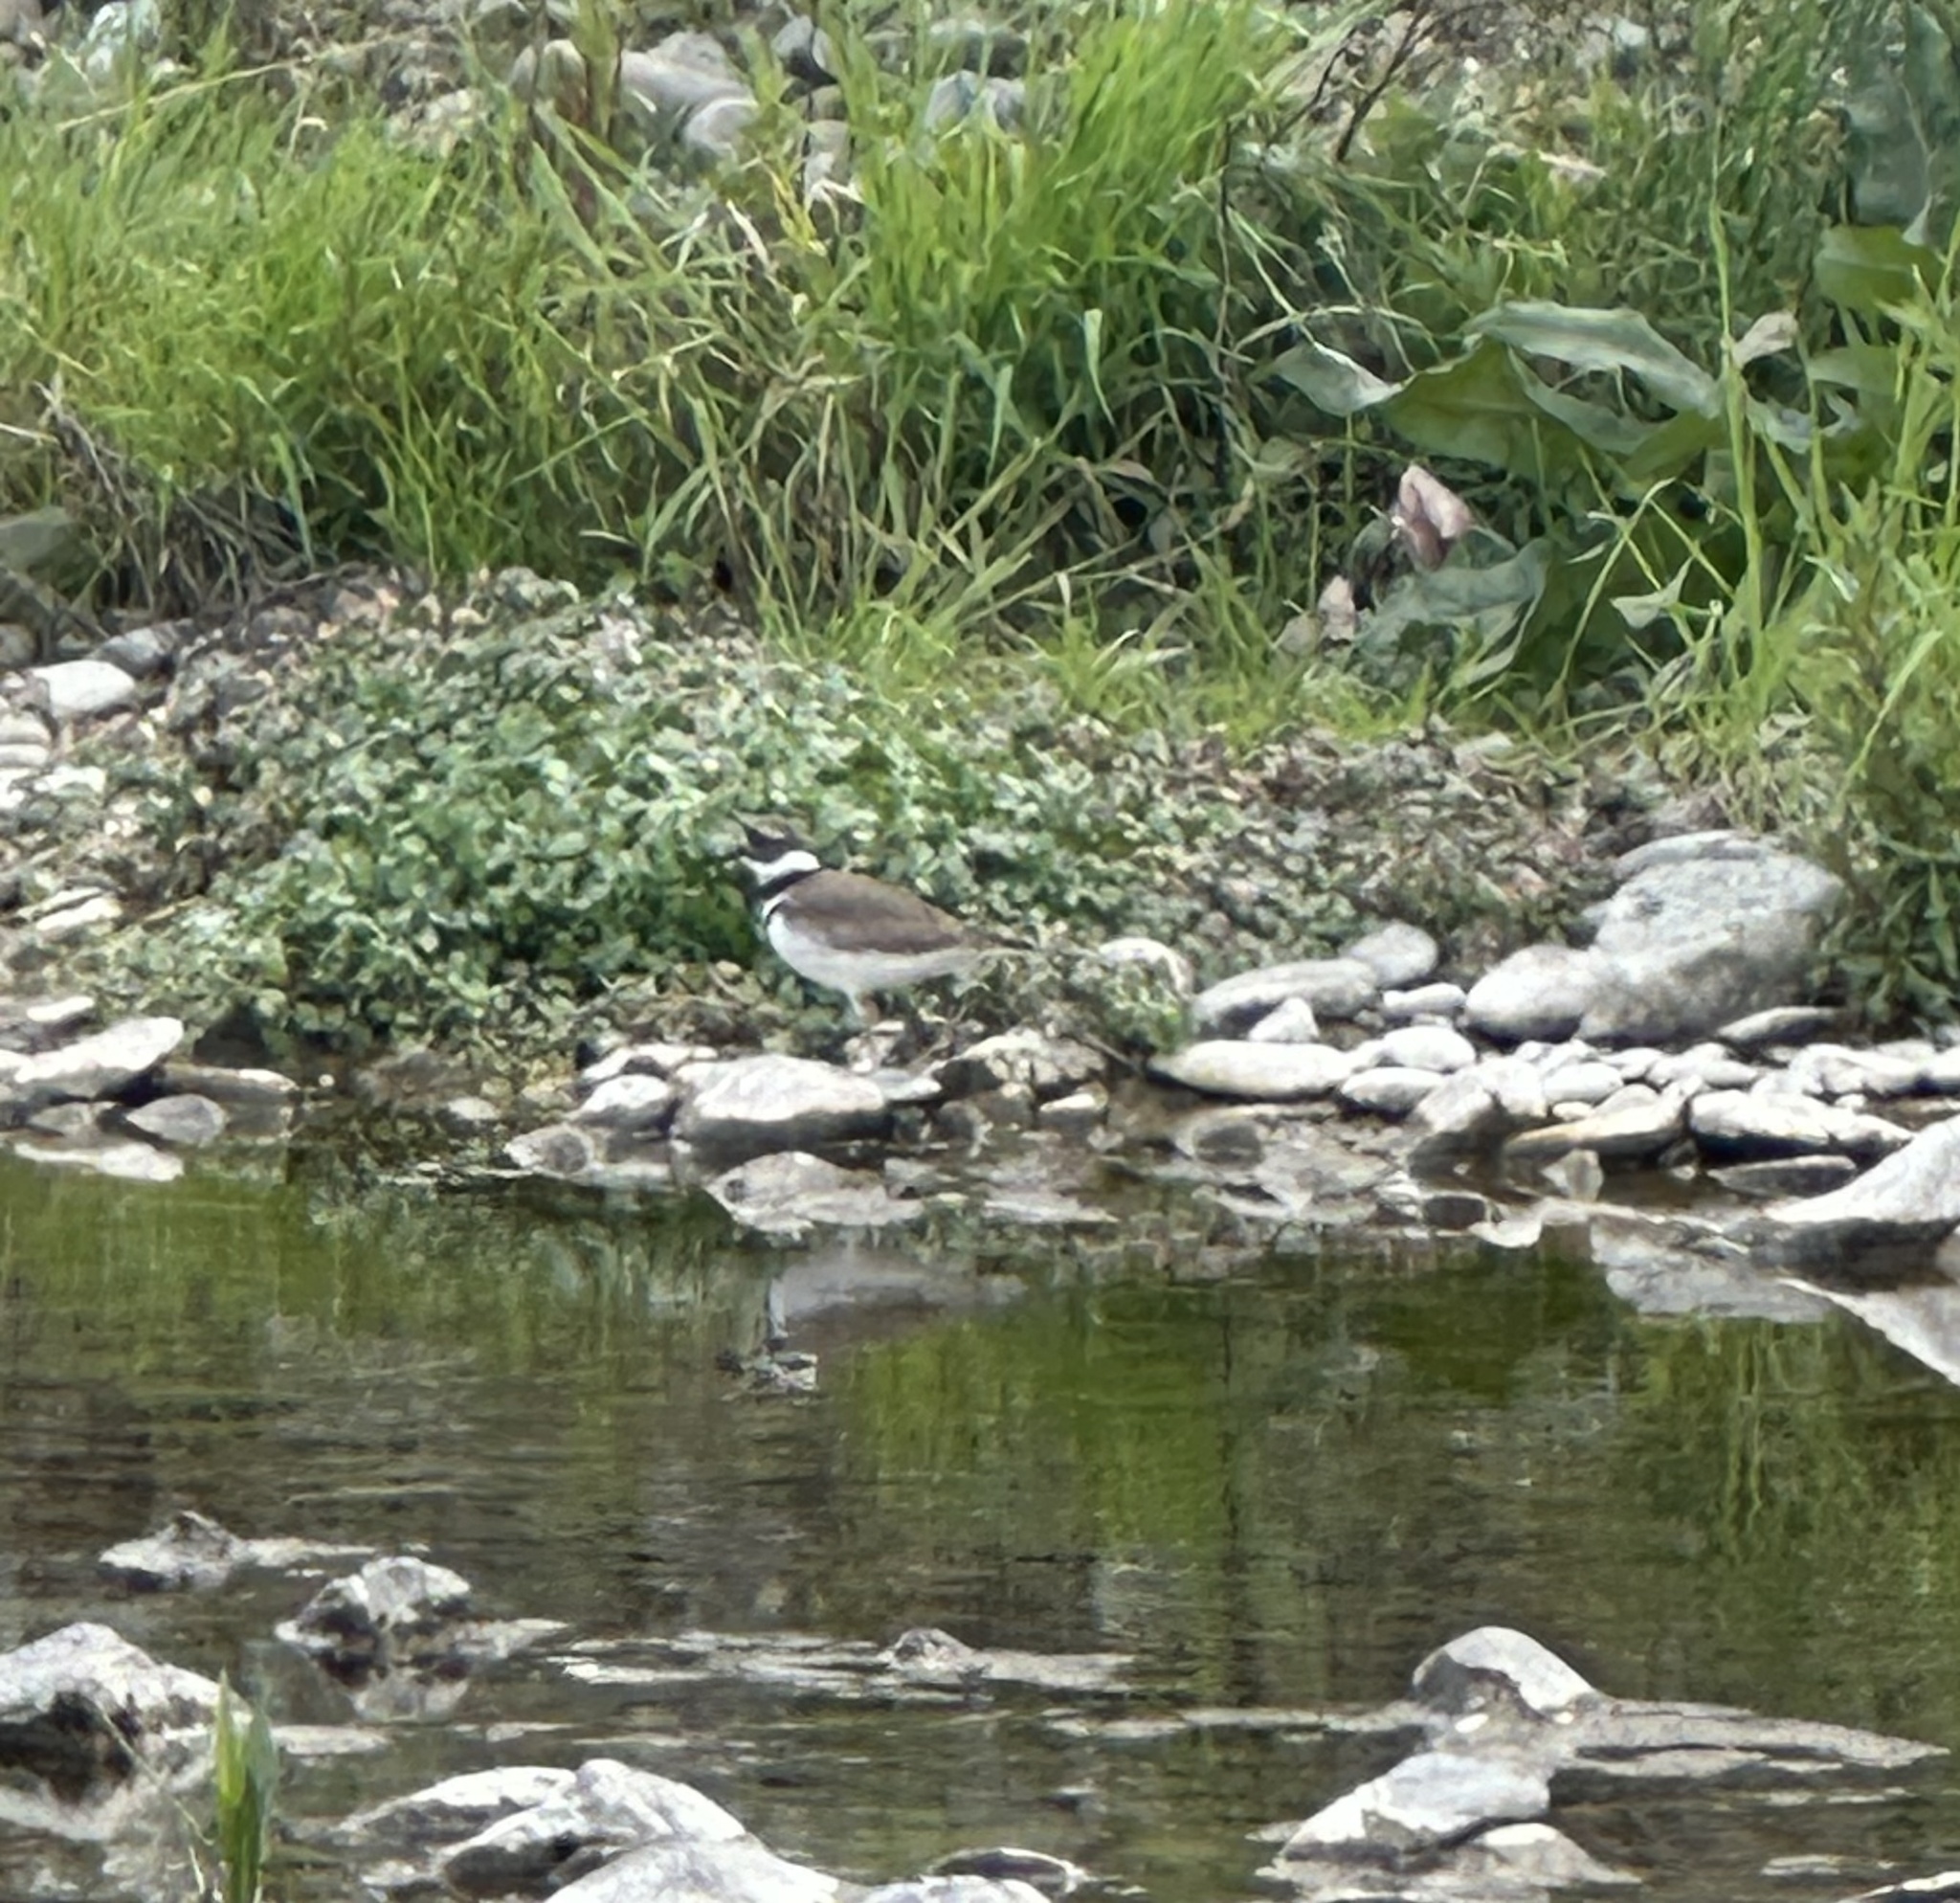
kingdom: Animalia
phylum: Chordata
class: Aves
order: Charadriiformes
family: Charadriidae
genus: Charadrius
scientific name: Charadrius vociferus
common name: Killdeer
